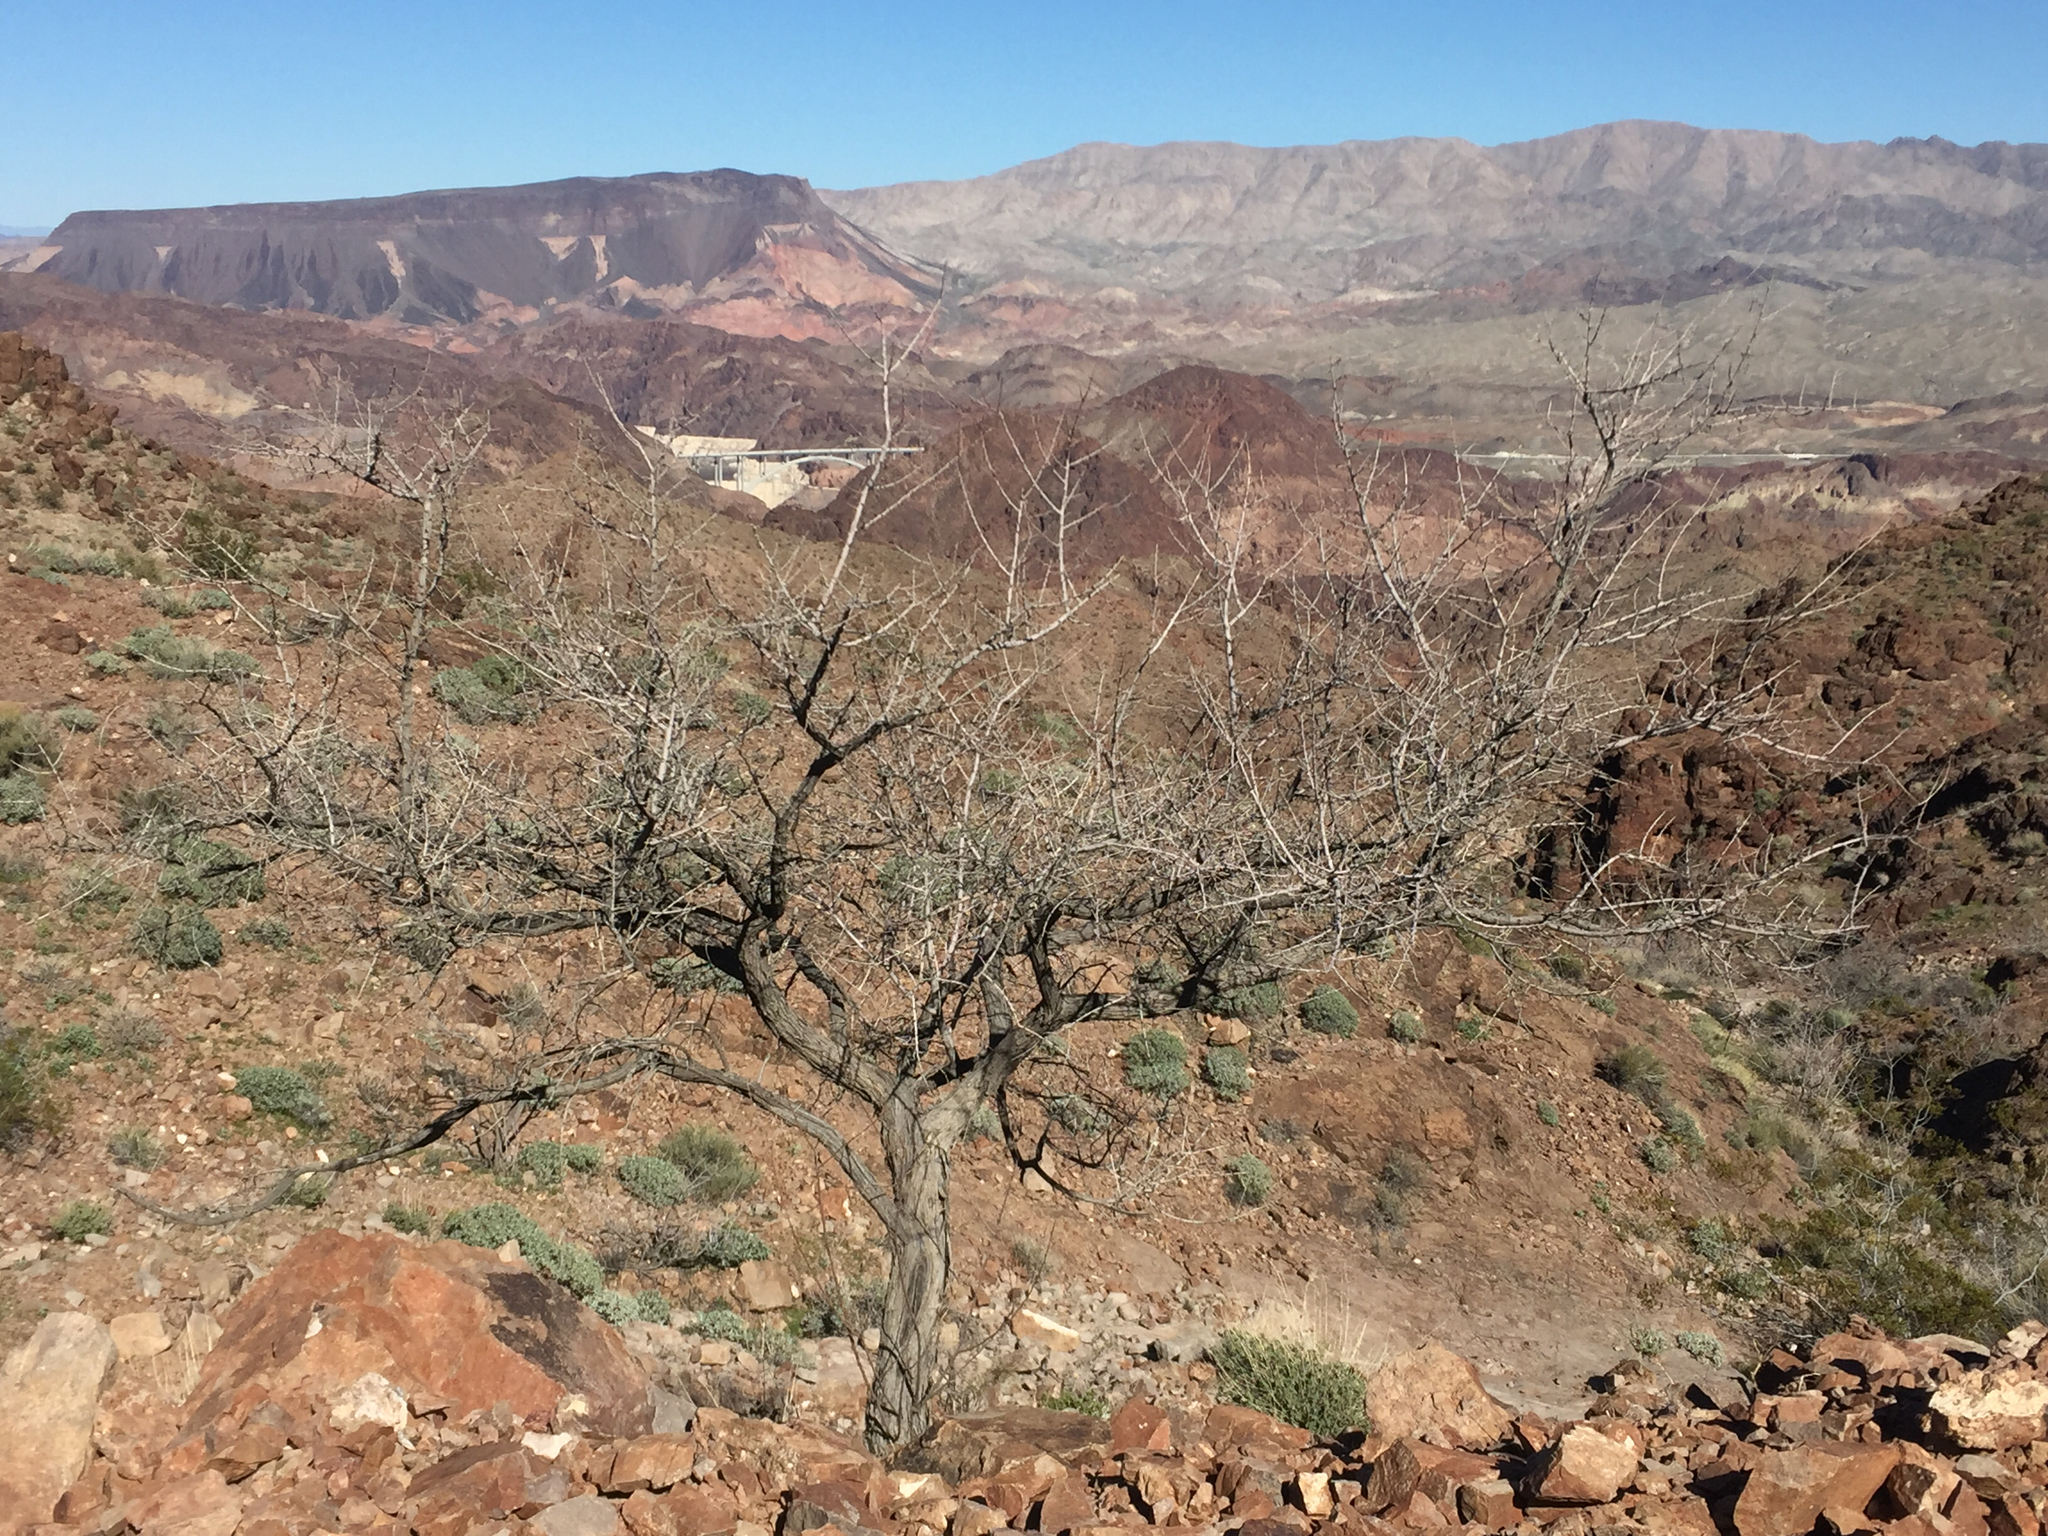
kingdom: Plantae
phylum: Tracheophyta
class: Magnoliopsida
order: Fabales
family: Fabaceae
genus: Senegalia
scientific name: Senegalia greggii
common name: Texas-mimosa
